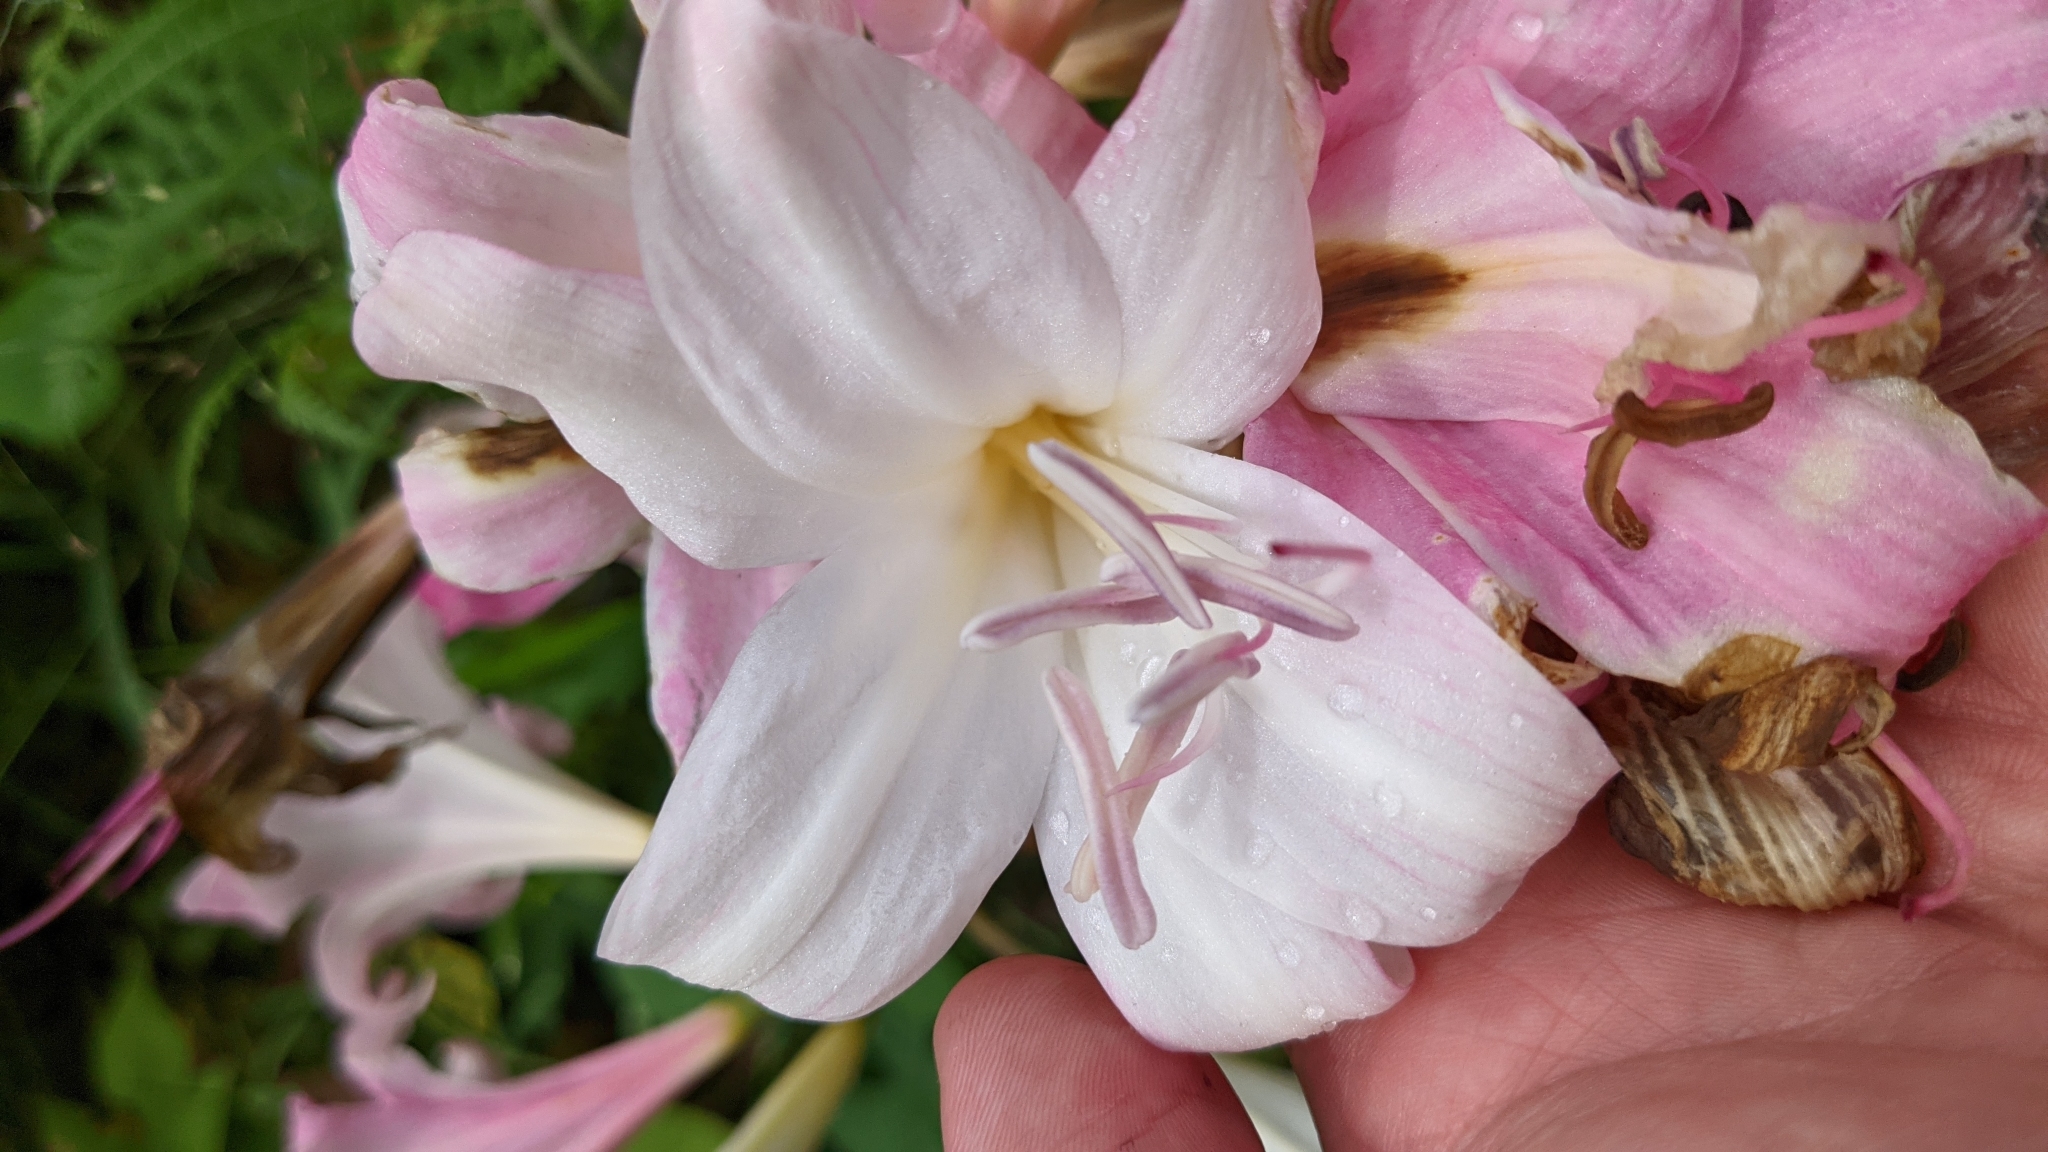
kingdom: Plantae
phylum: Tracheophyta
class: Liliopsida
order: Asparagales
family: Amaryllidaceae
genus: Amaryllis
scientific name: Amaryllis belladonna
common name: Jersey lily
